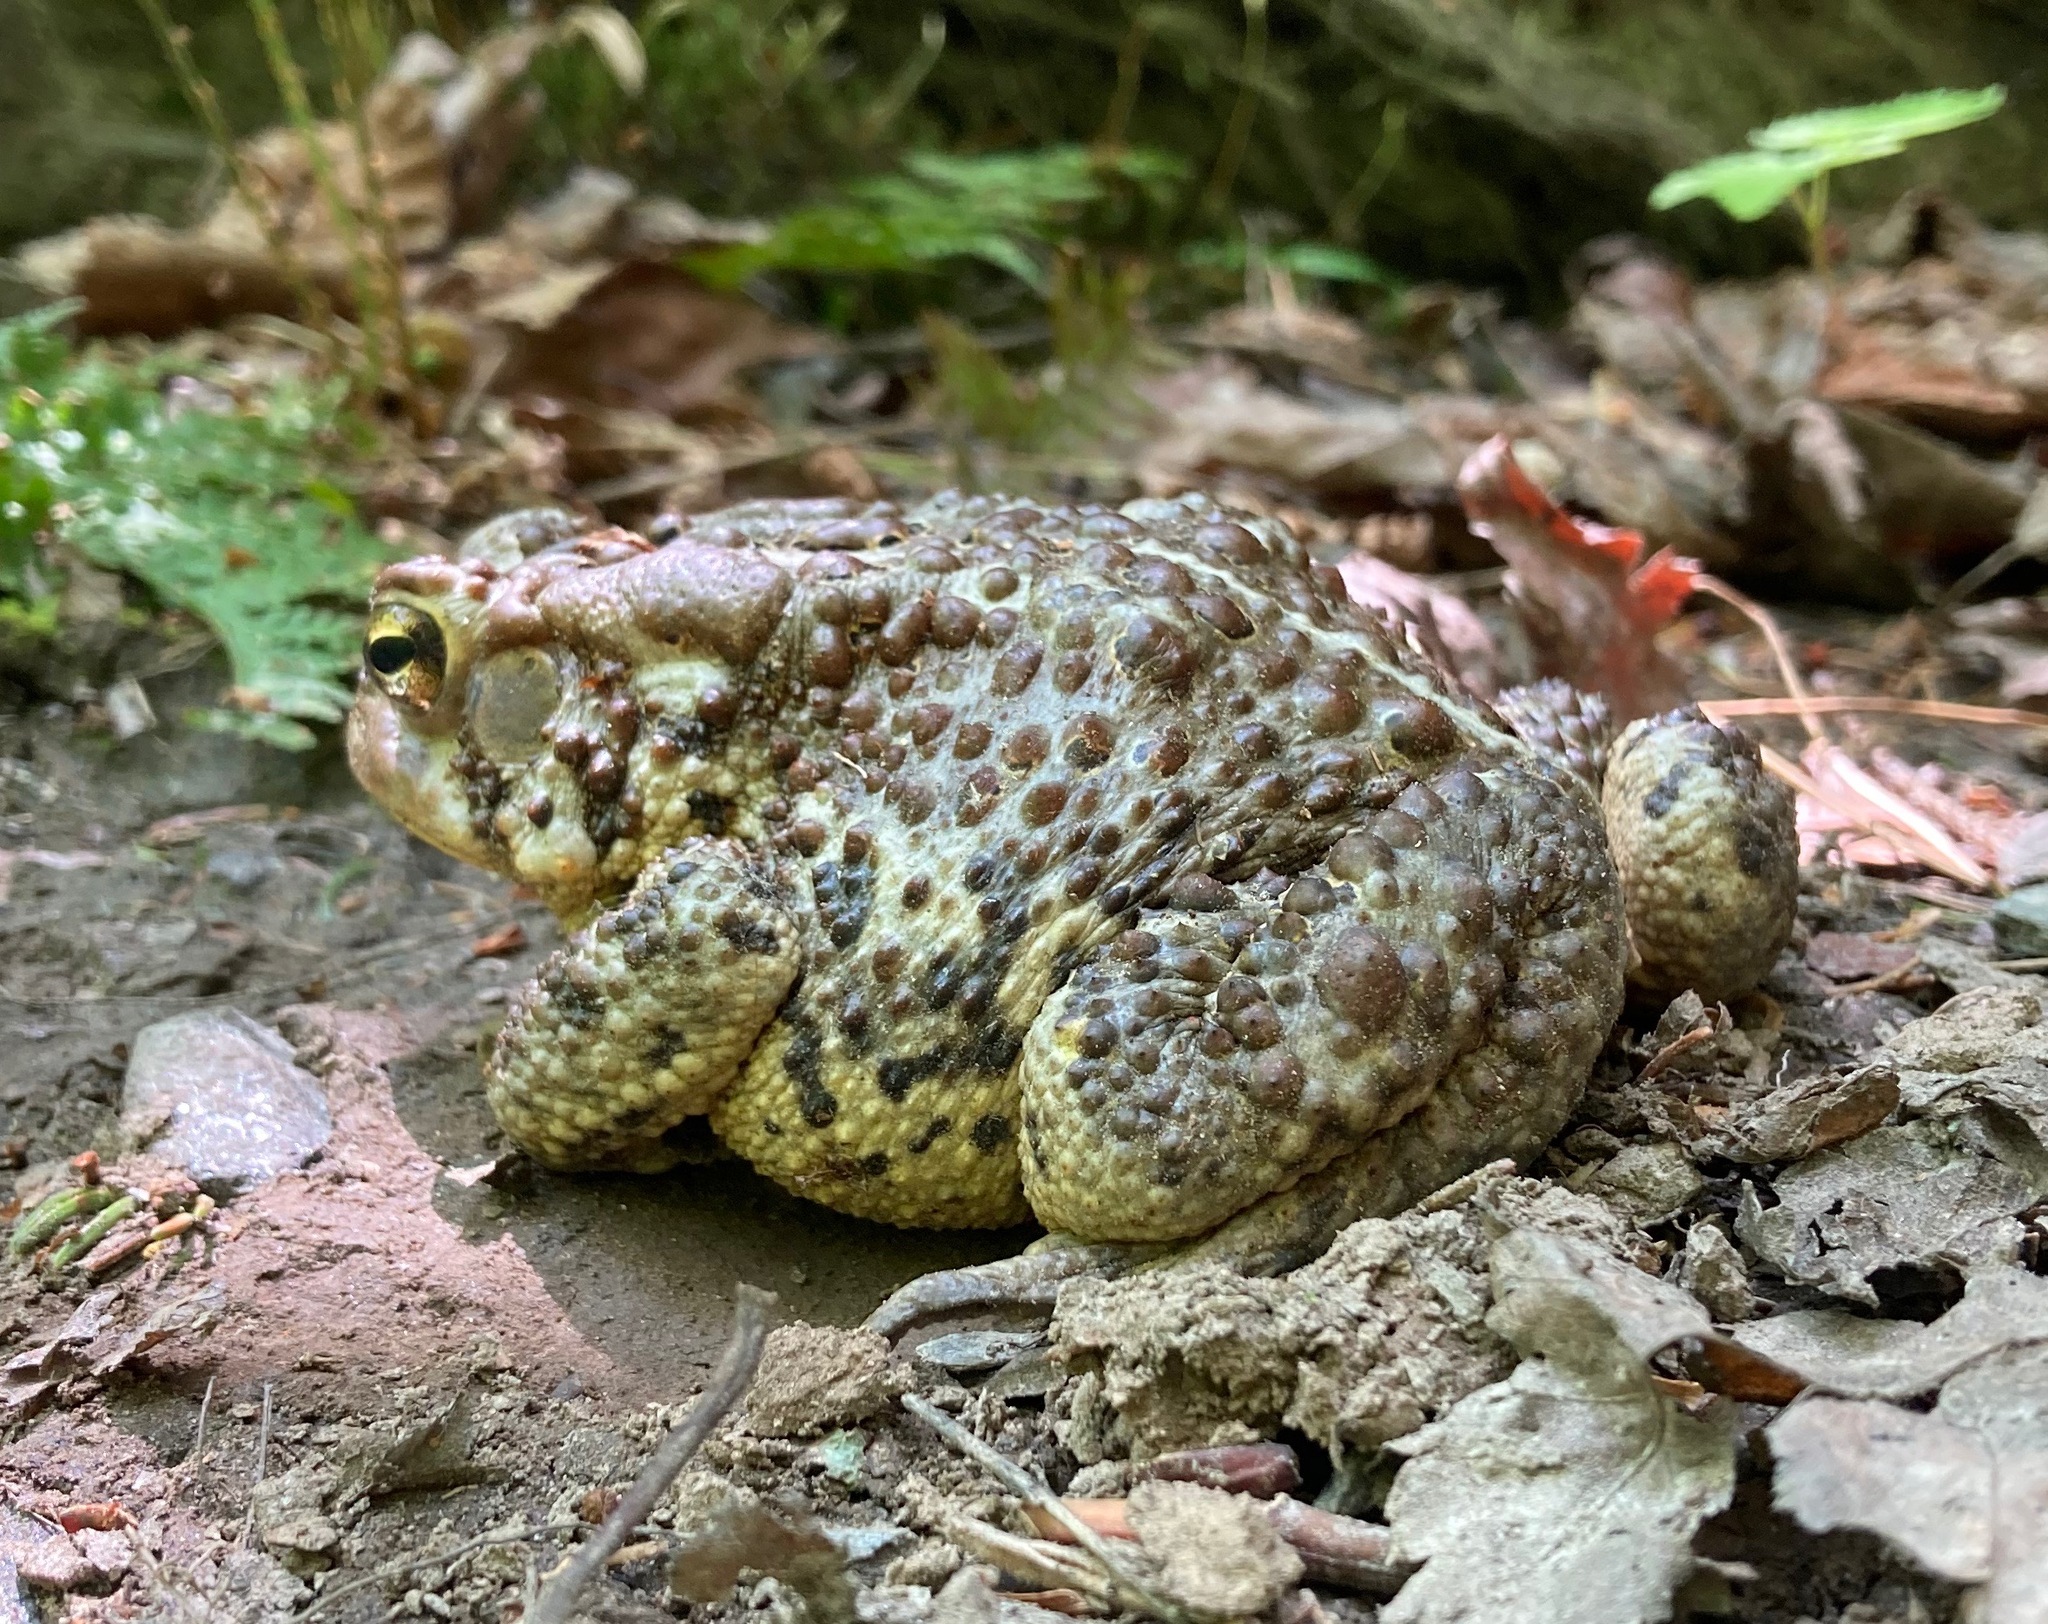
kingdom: Animalia
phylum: Chordata
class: Amphibia
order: Anura
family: Bufonidae
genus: Anaxyrus
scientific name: Anaxyrus americanus
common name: American toad
